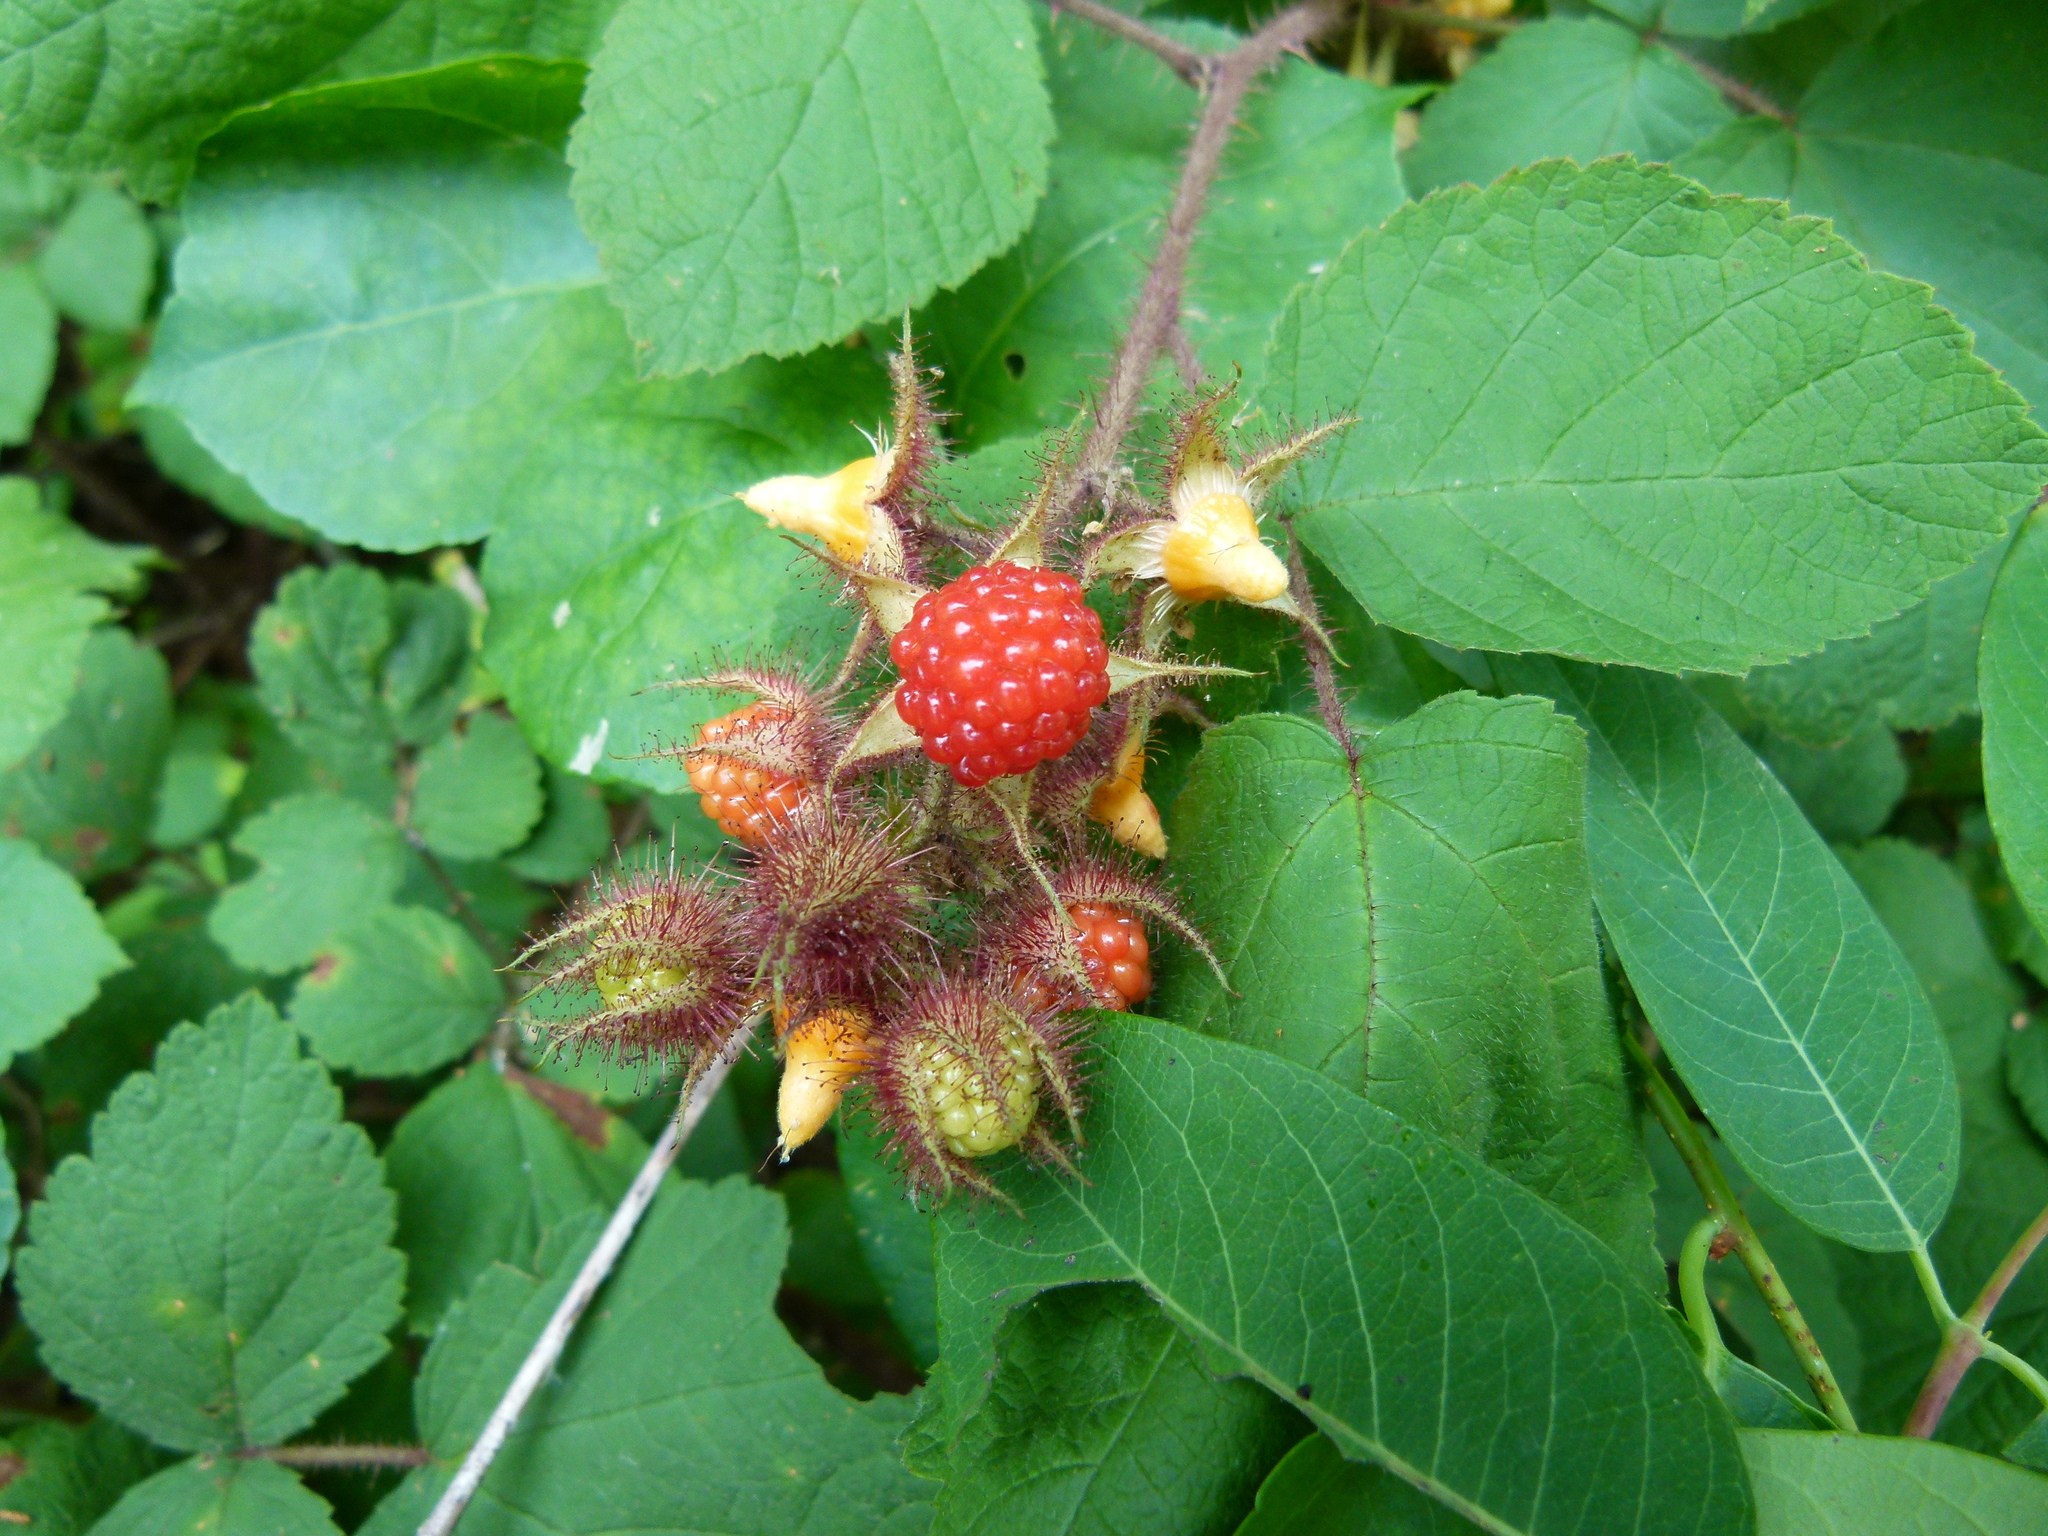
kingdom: Plantae
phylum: Tracheophyta
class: Magnoliopsida
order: Rosales
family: Rosaceae
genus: Rubus
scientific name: Rubus phoenicolasius
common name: Japanese wineberry
